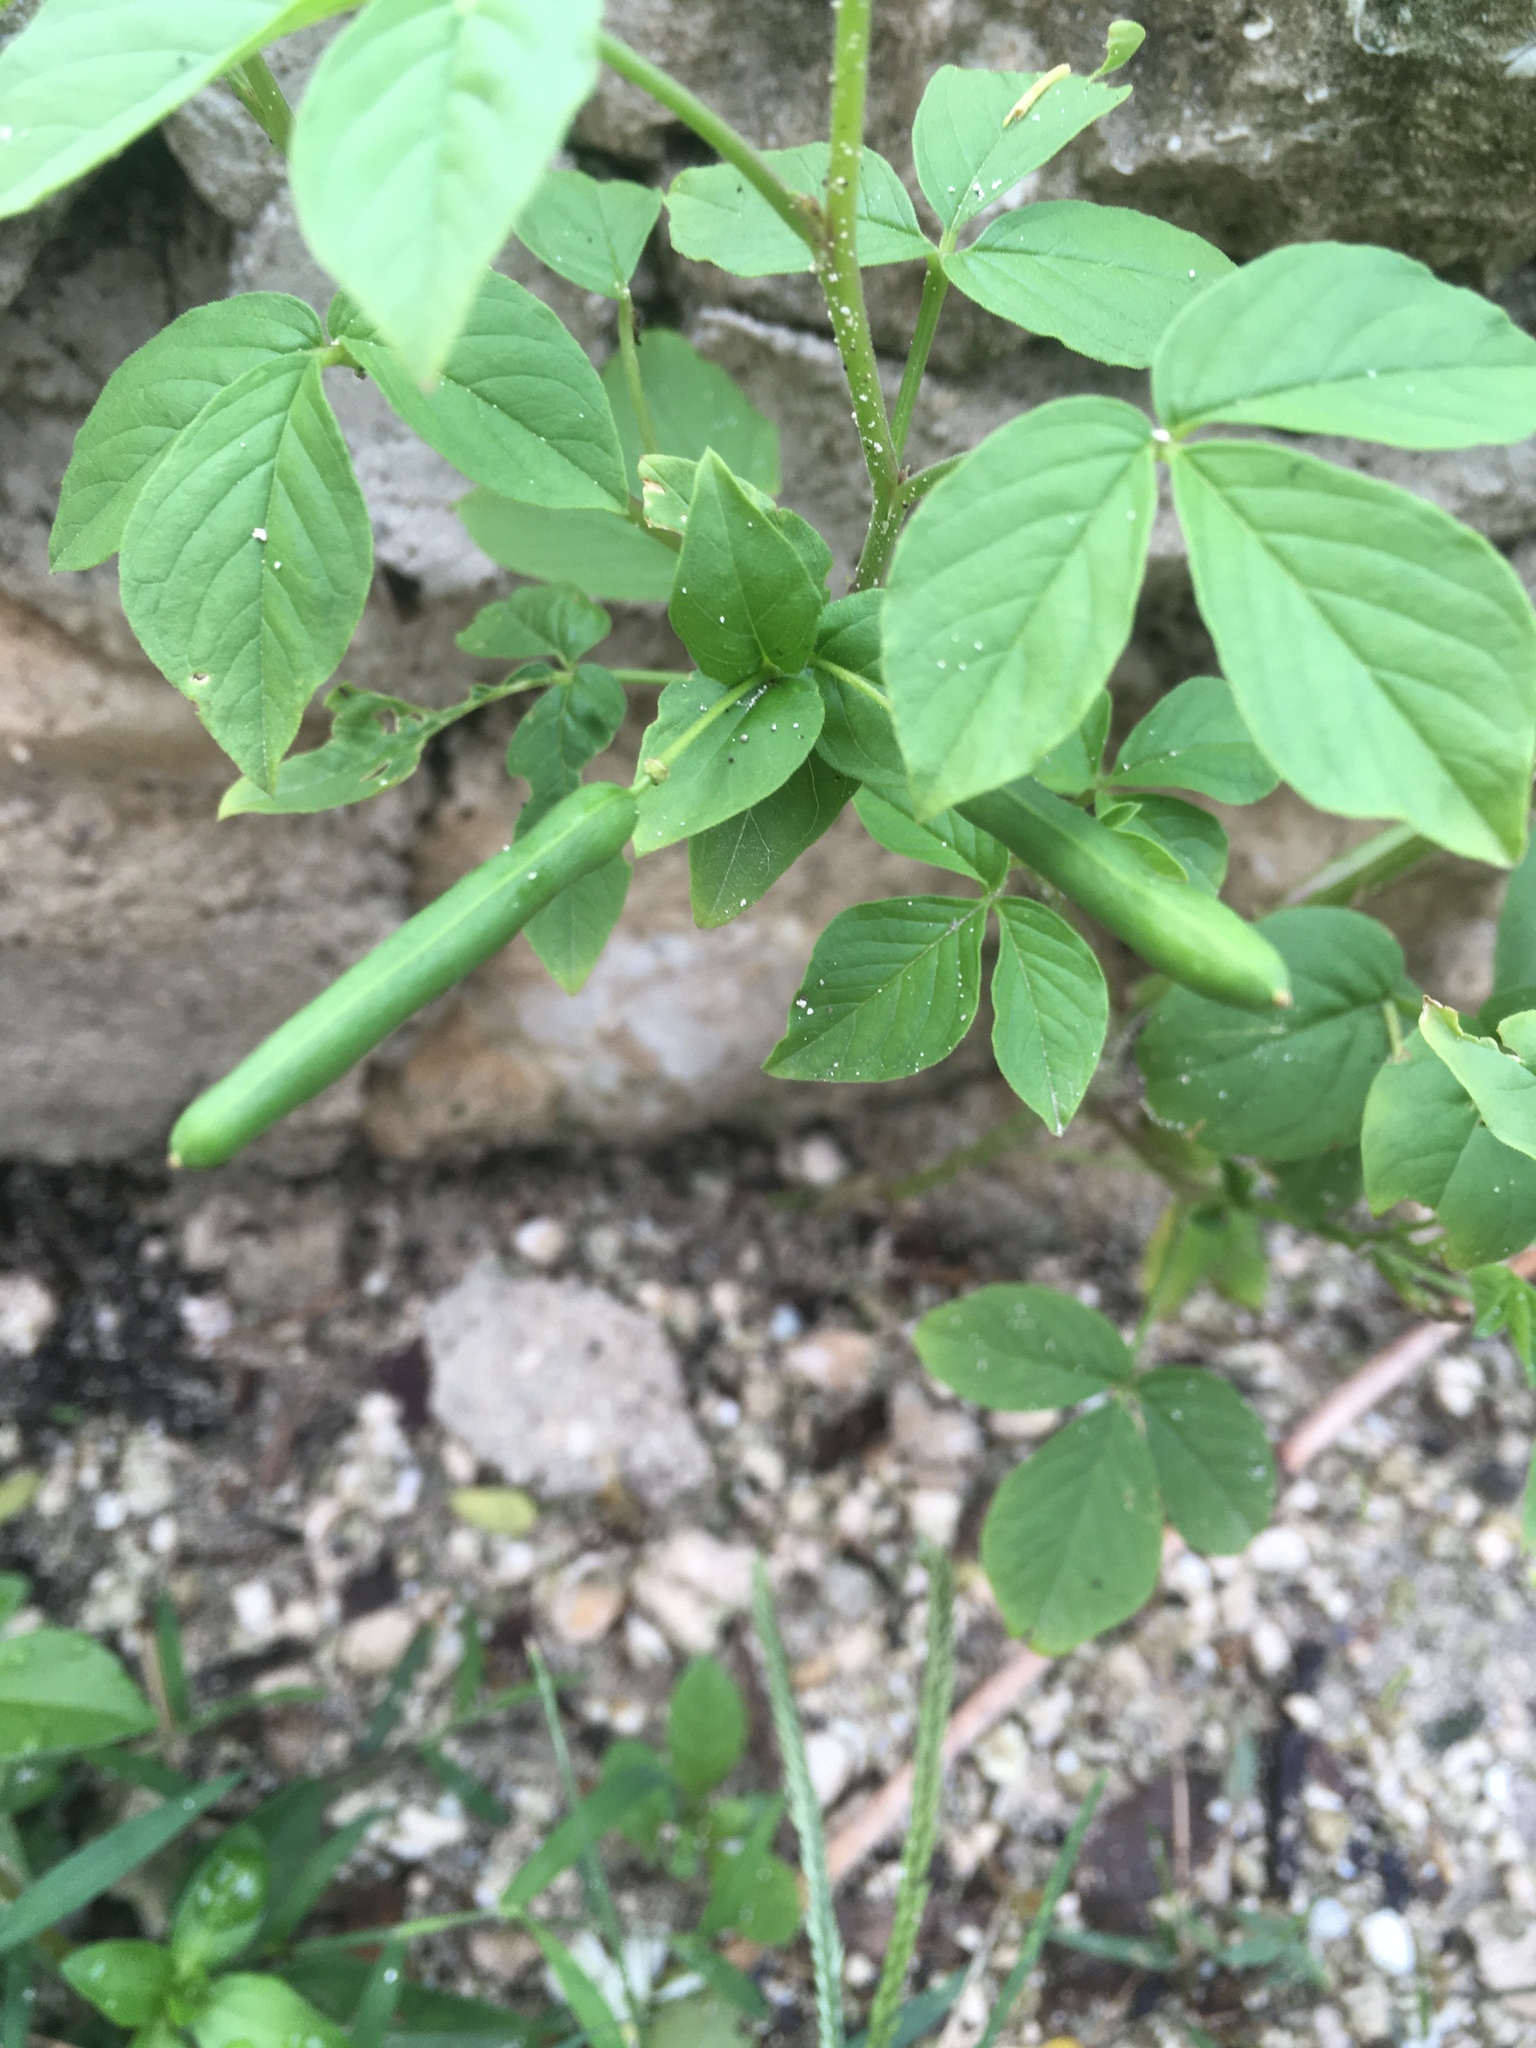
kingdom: Plantae
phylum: Tracheophyta
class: Magnoliopsida
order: Brassicales
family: Cleomaceae
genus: Arivela
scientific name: Arivela viscosa
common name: Asian spiderflower
